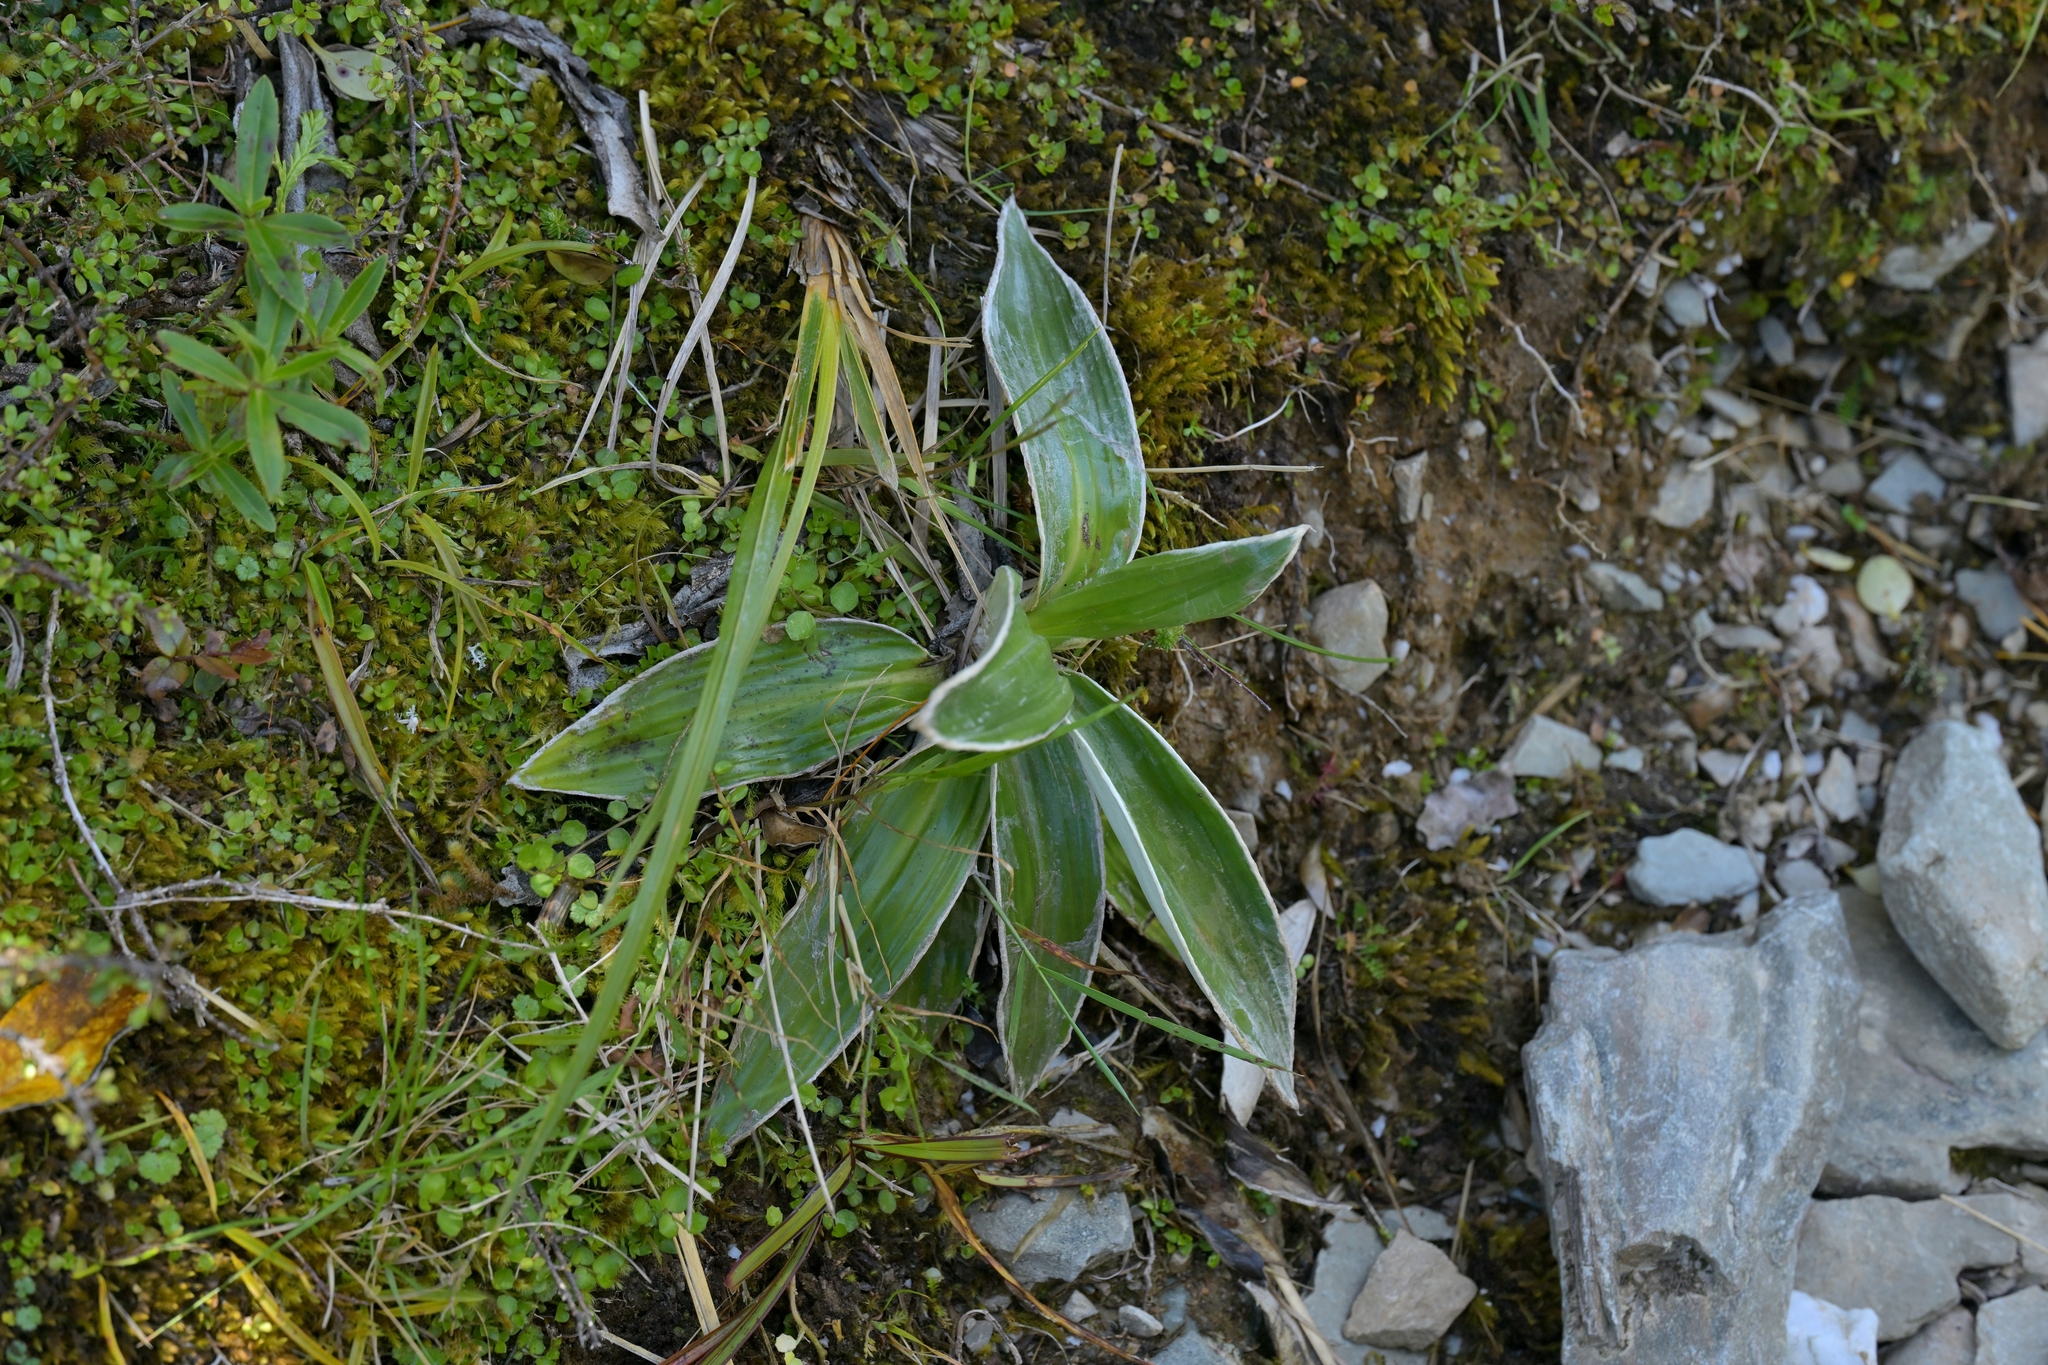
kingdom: Plantae
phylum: Tracheophyta
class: Magnoliopsida
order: Asterales
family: Asteraceae
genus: Celmisia
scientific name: Celmisia semicordata
